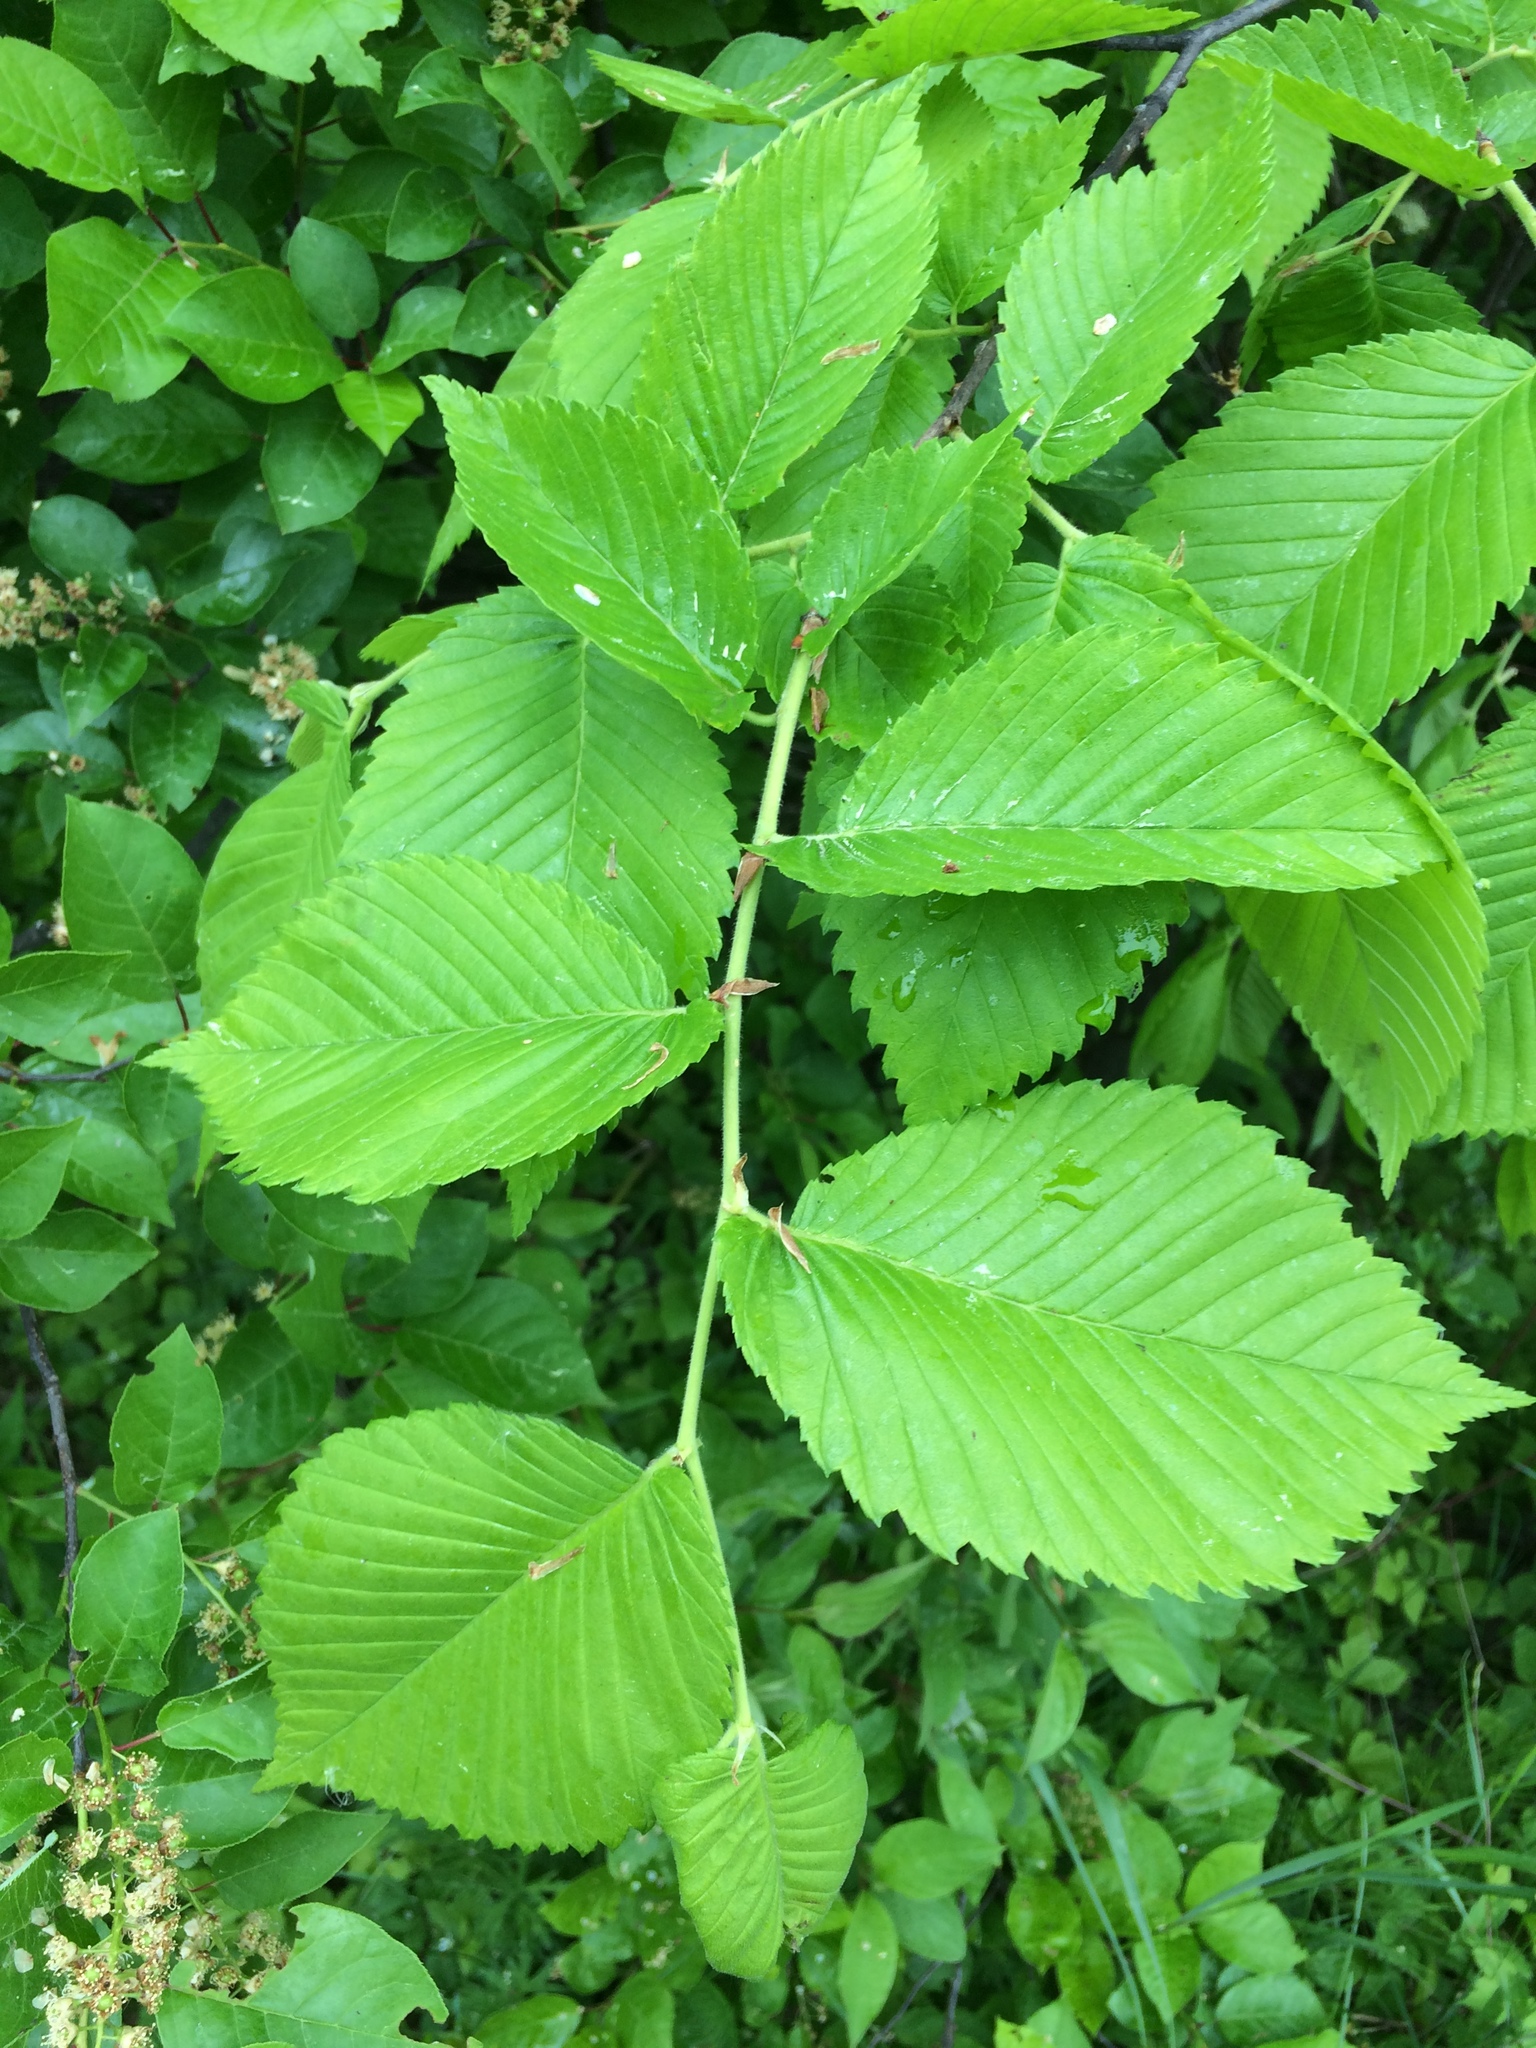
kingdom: Plantae
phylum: Tracheophyta
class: Magnoliopsida
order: Rosales
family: Ulmaceae
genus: Ulmus
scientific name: Ulmus americana
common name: American elm
